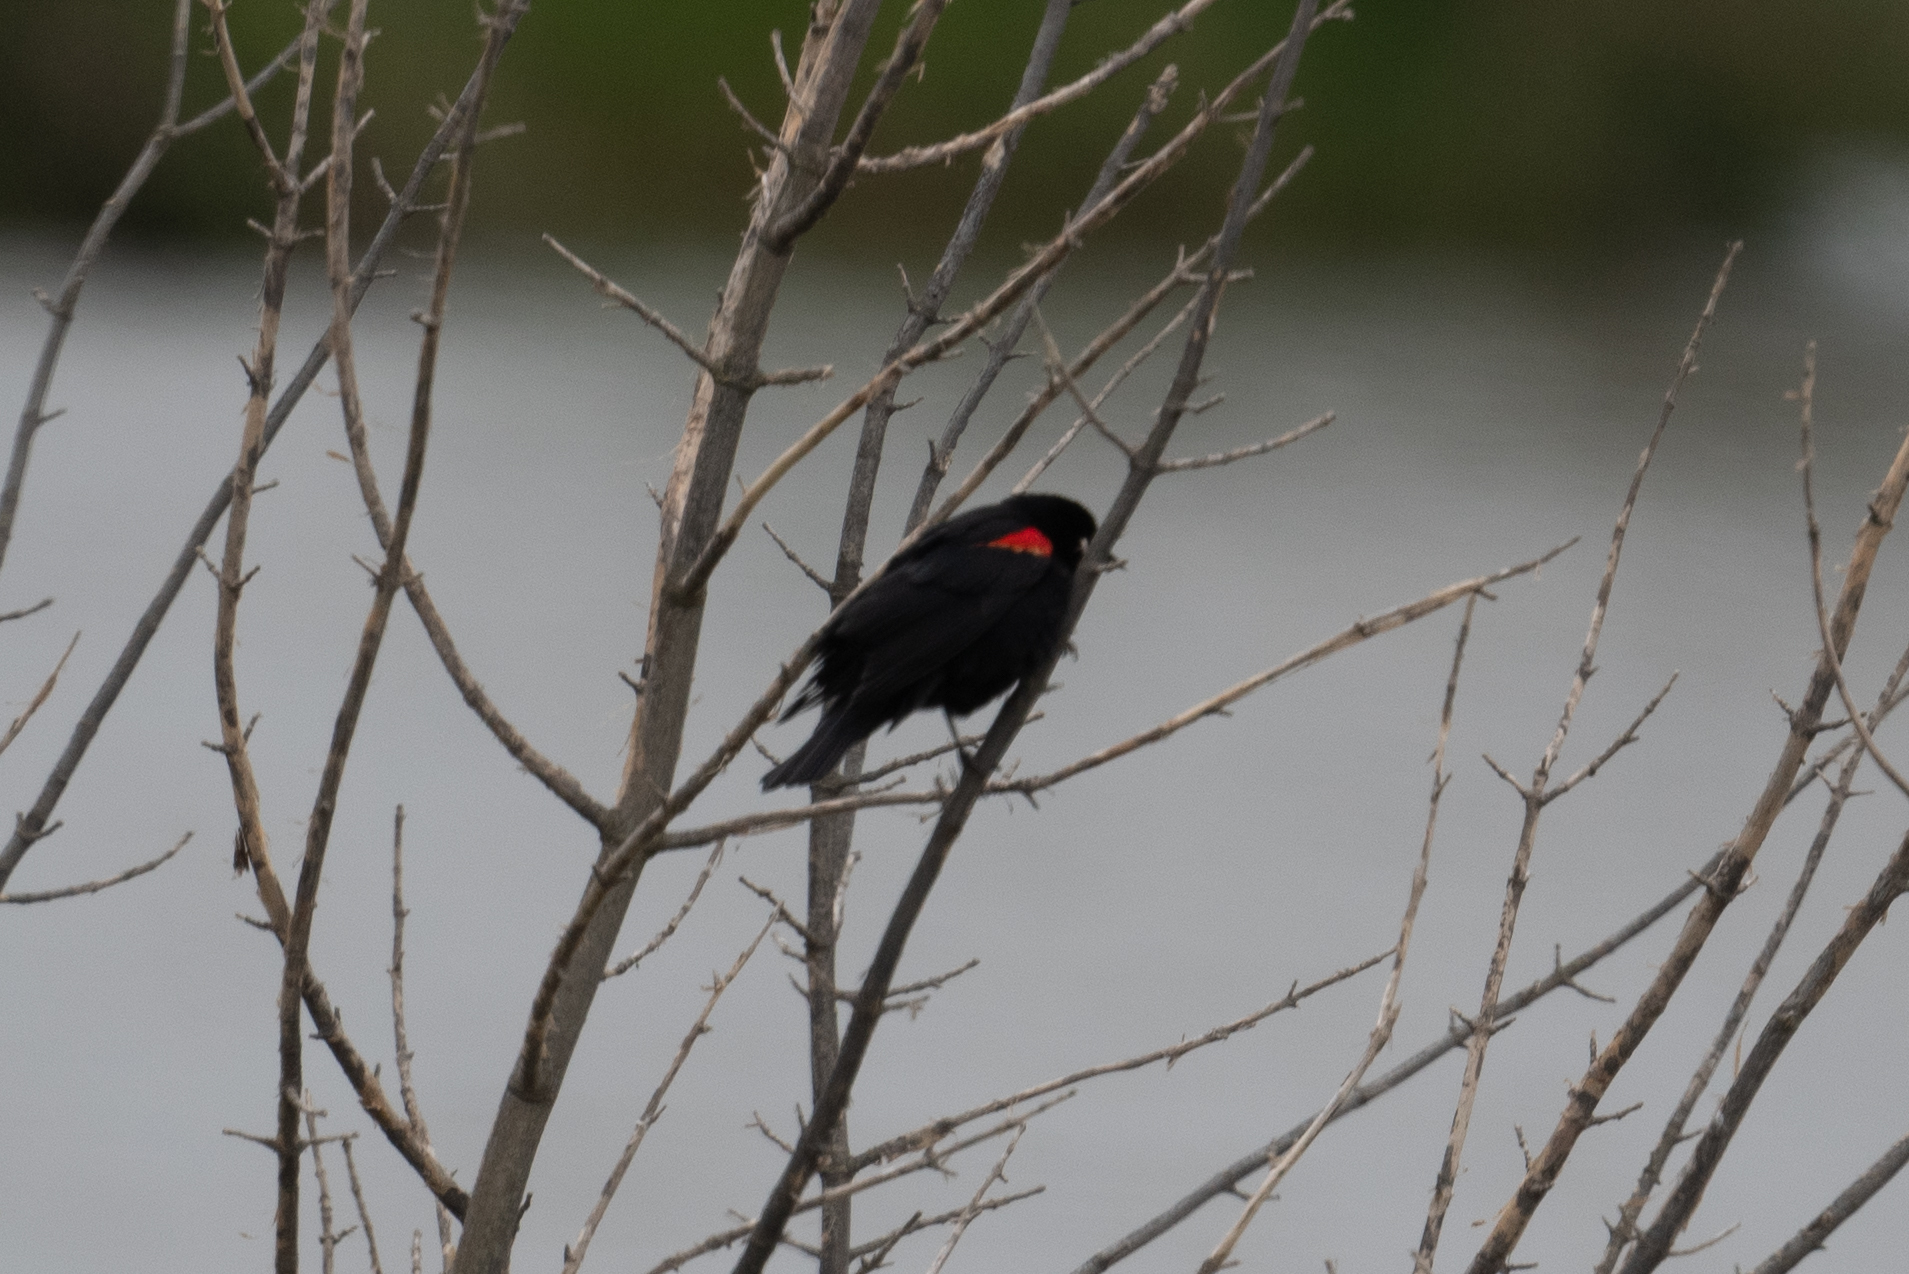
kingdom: Animalia
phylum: Chordata
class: Aves
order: Passeriformes
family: Icteridae
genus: Agelaius
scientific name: Agelaius phoeniceus
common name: Red-winged blackbird
